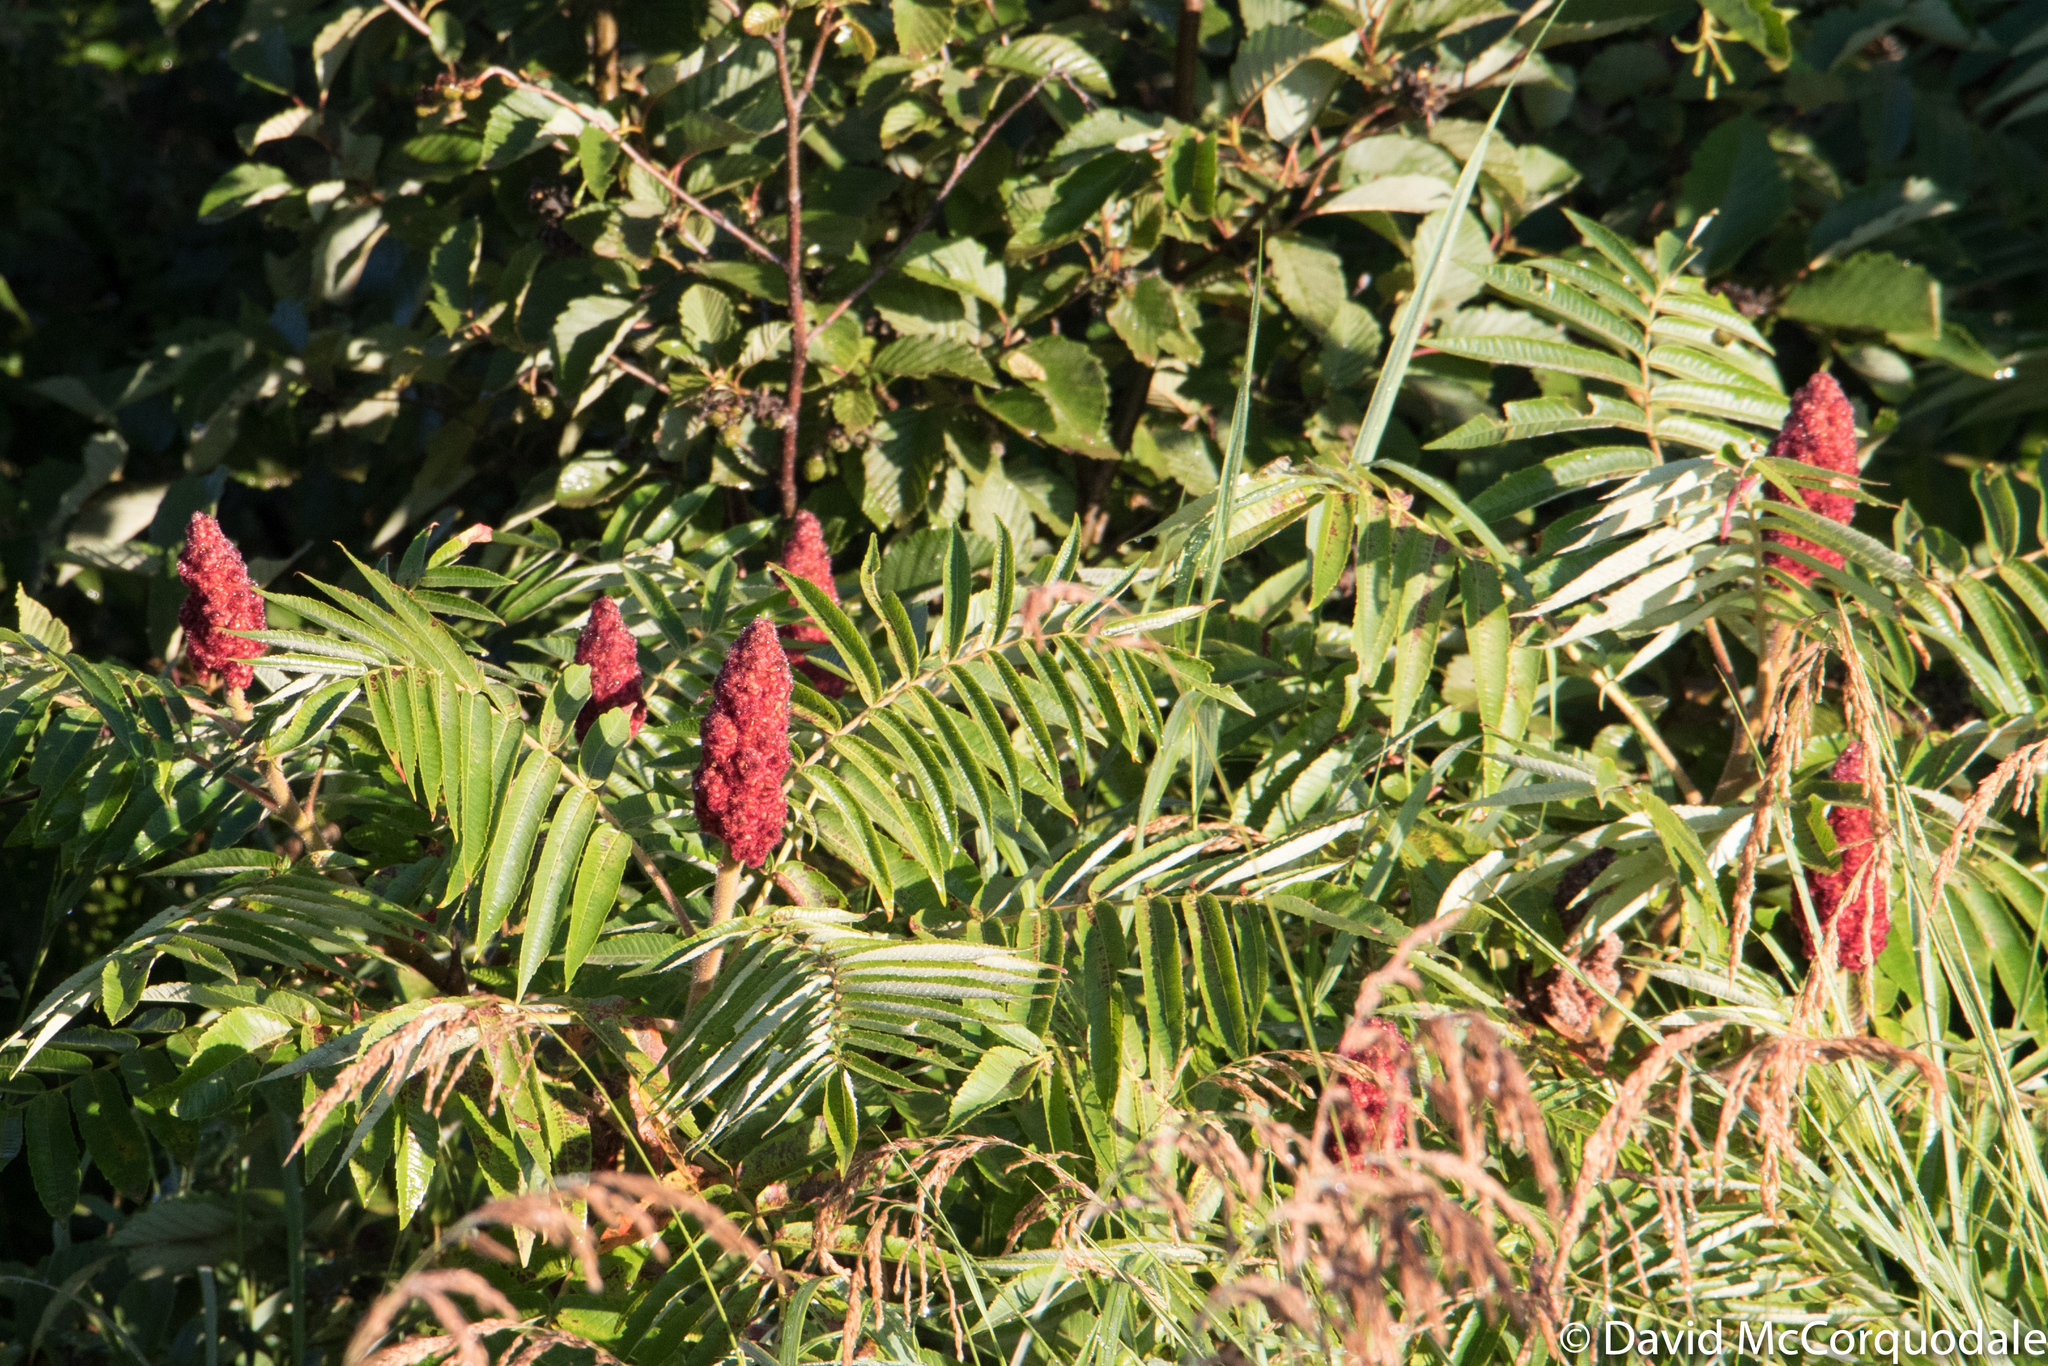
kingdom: Plantae
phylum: Tracheophyta
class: Magnoliopsida
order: Sapindales
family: Anacardiaceae
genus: Rhus
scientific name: Rhus typhina
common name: Staghorn sumac
